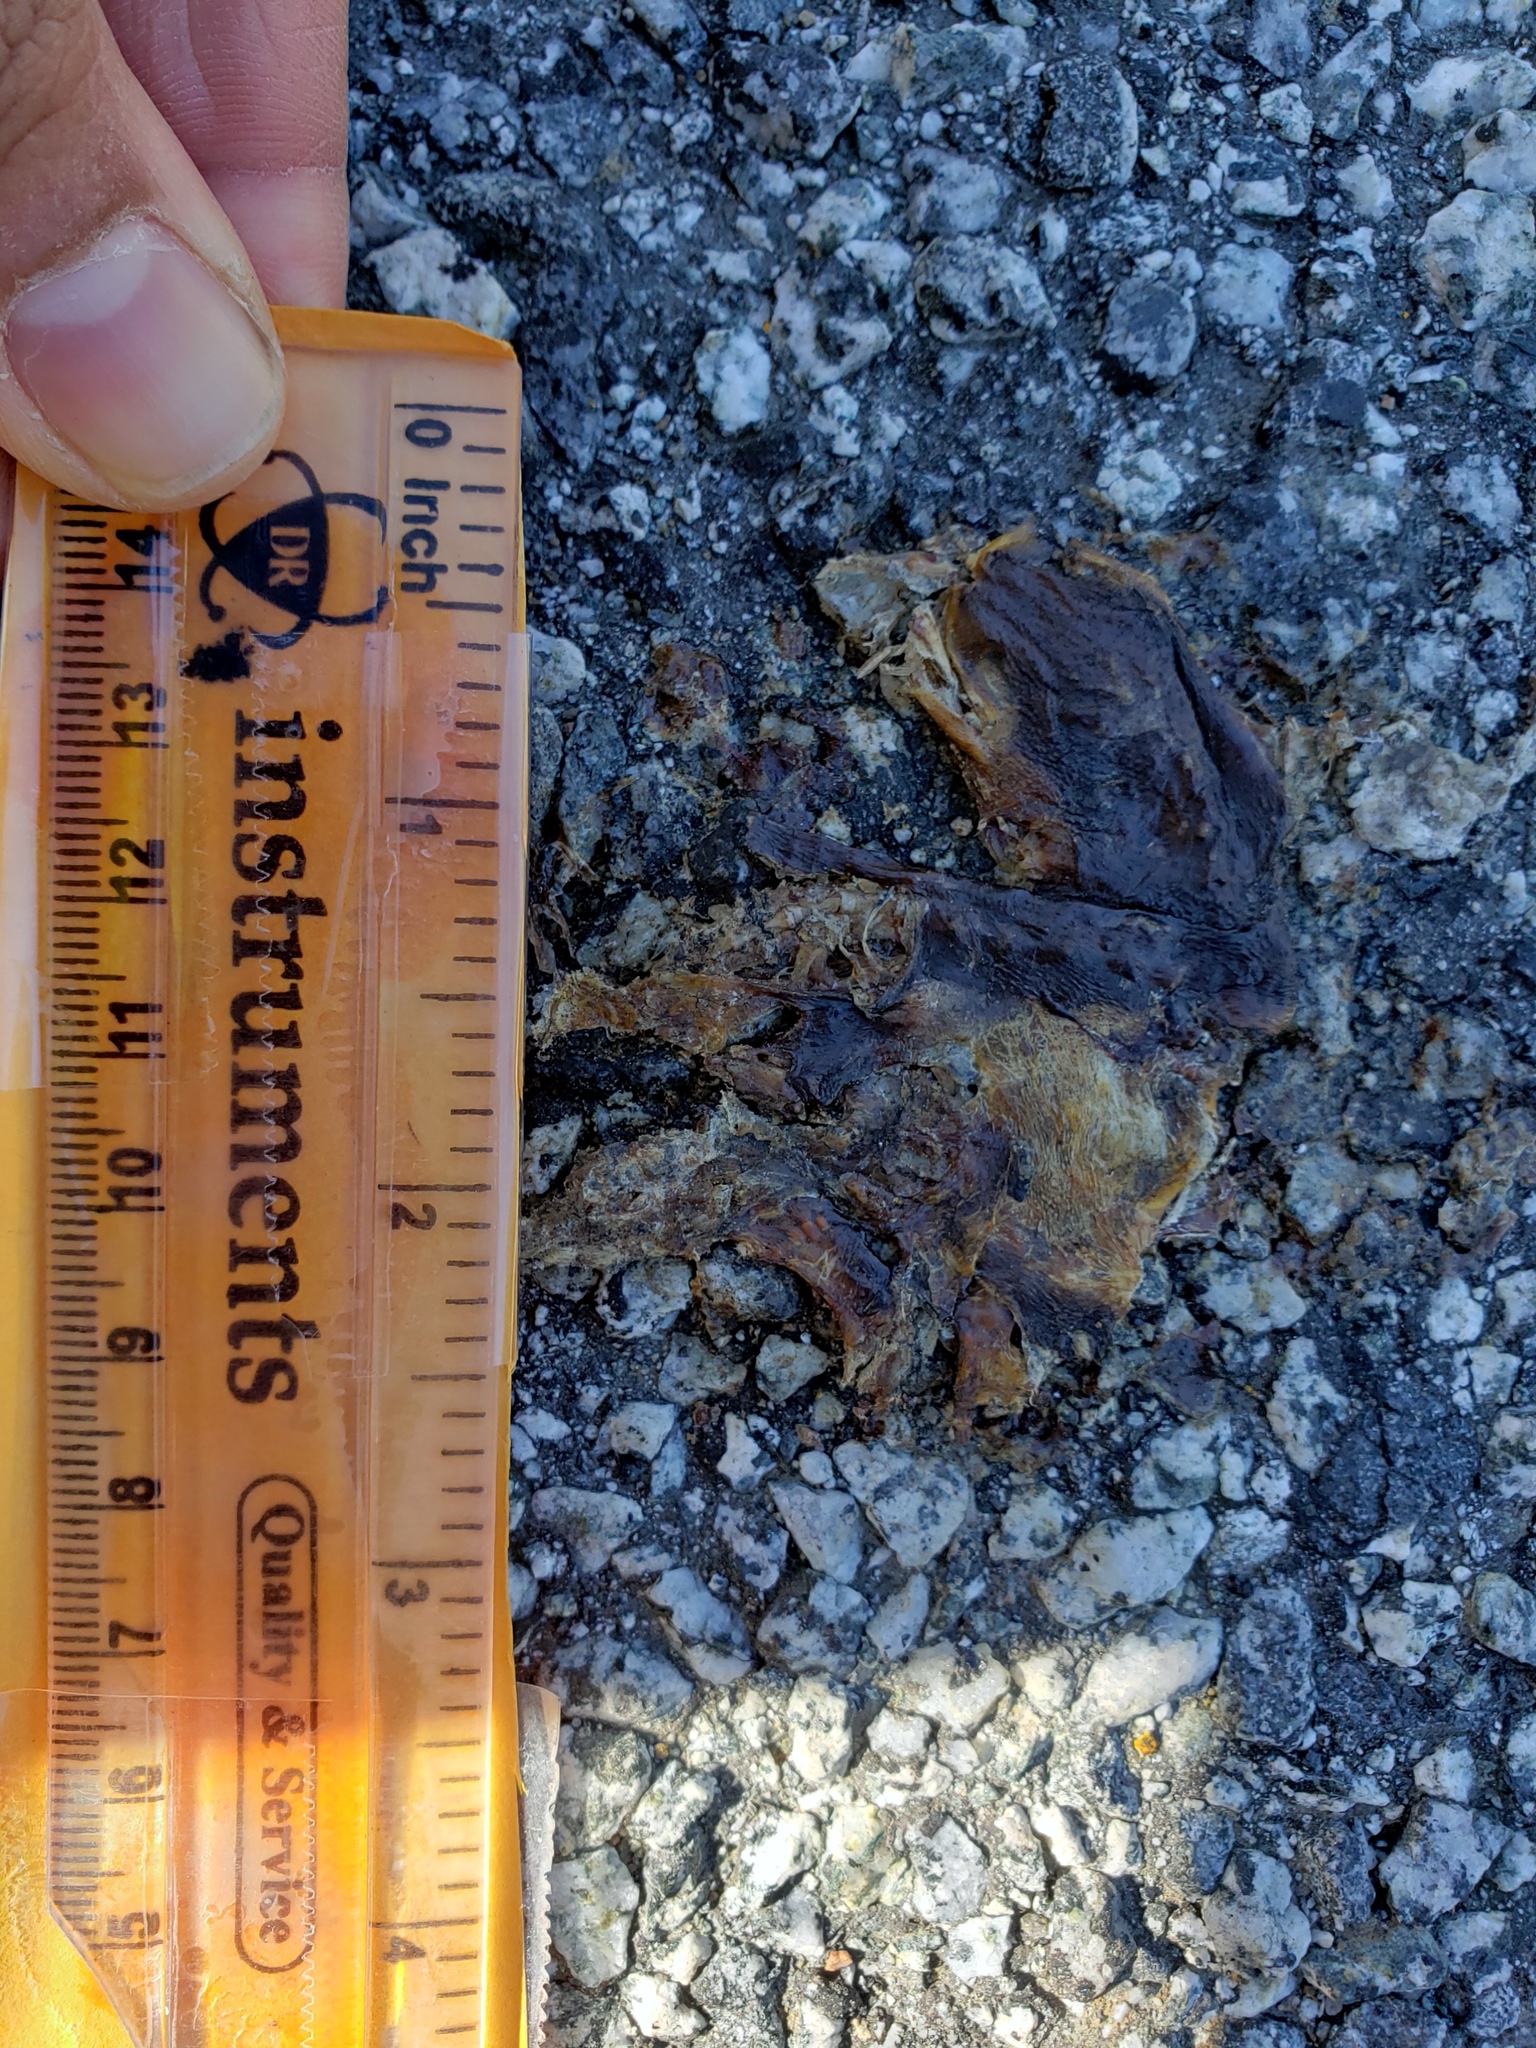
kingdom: Animalia
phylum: Chordata
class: Amphibia
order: Caudata
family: Salamandridae
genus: Taricha
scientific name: Taricha
